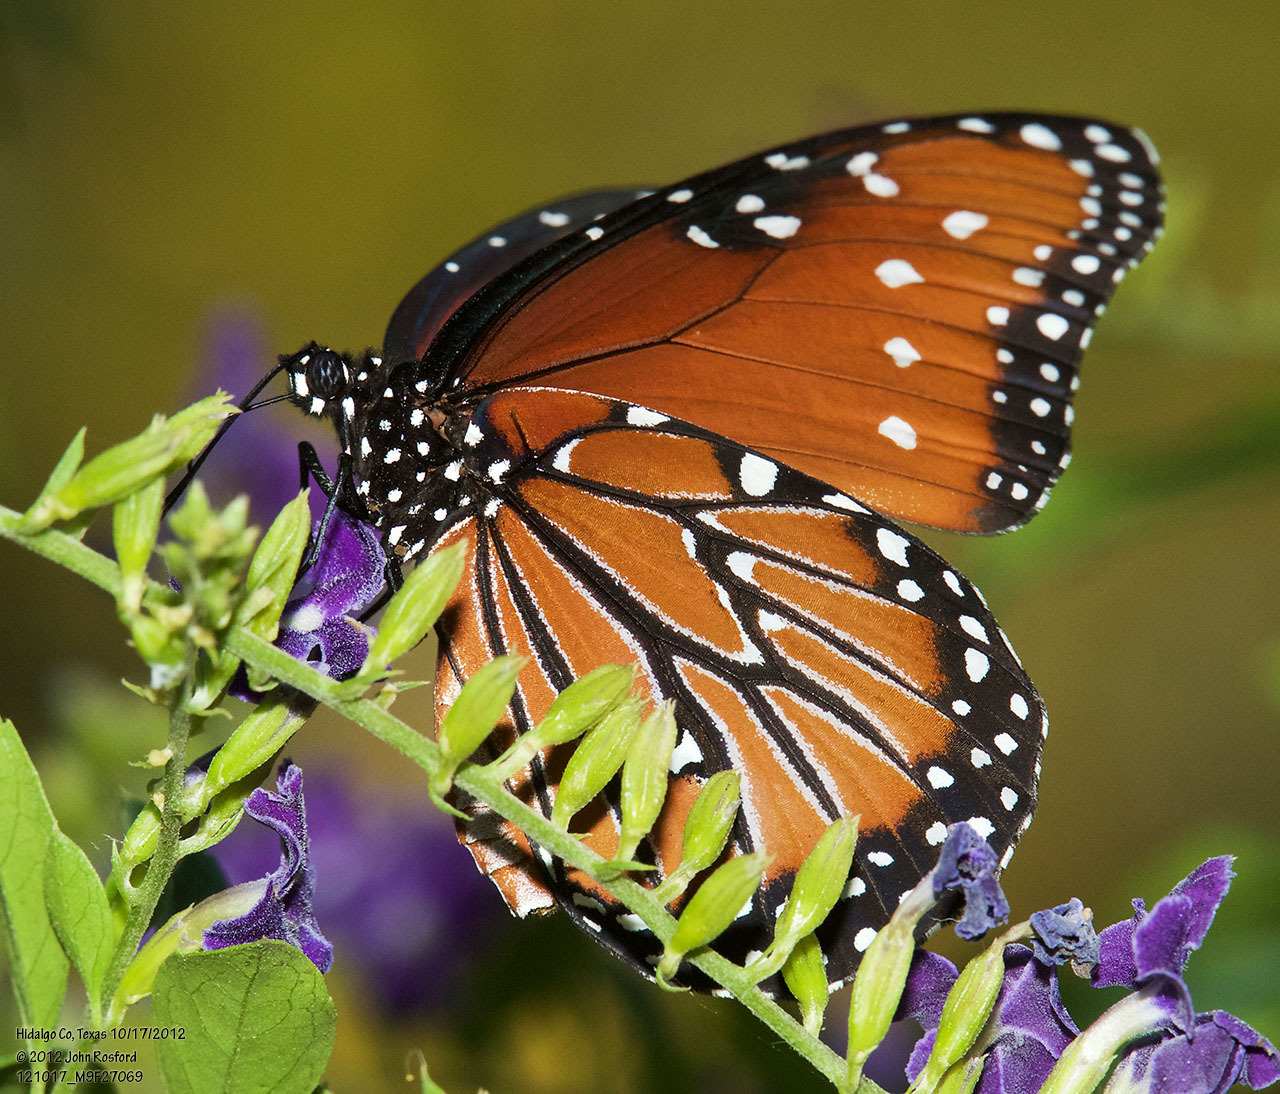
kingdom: Animalia
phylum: Arthropoda
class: Insecta
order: Lepidoptera
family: Nymphalidae
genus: Danaus
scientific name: Danaus gilippus
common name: Queen
